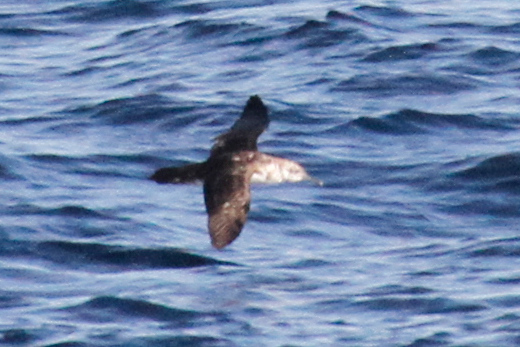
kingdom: Animalia
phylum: Chordata
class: Aves
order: Procellariiformes
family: Procellariidae
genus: Puffinus
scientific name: Puffinus opisthomelas
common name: Black-vented shearwater
